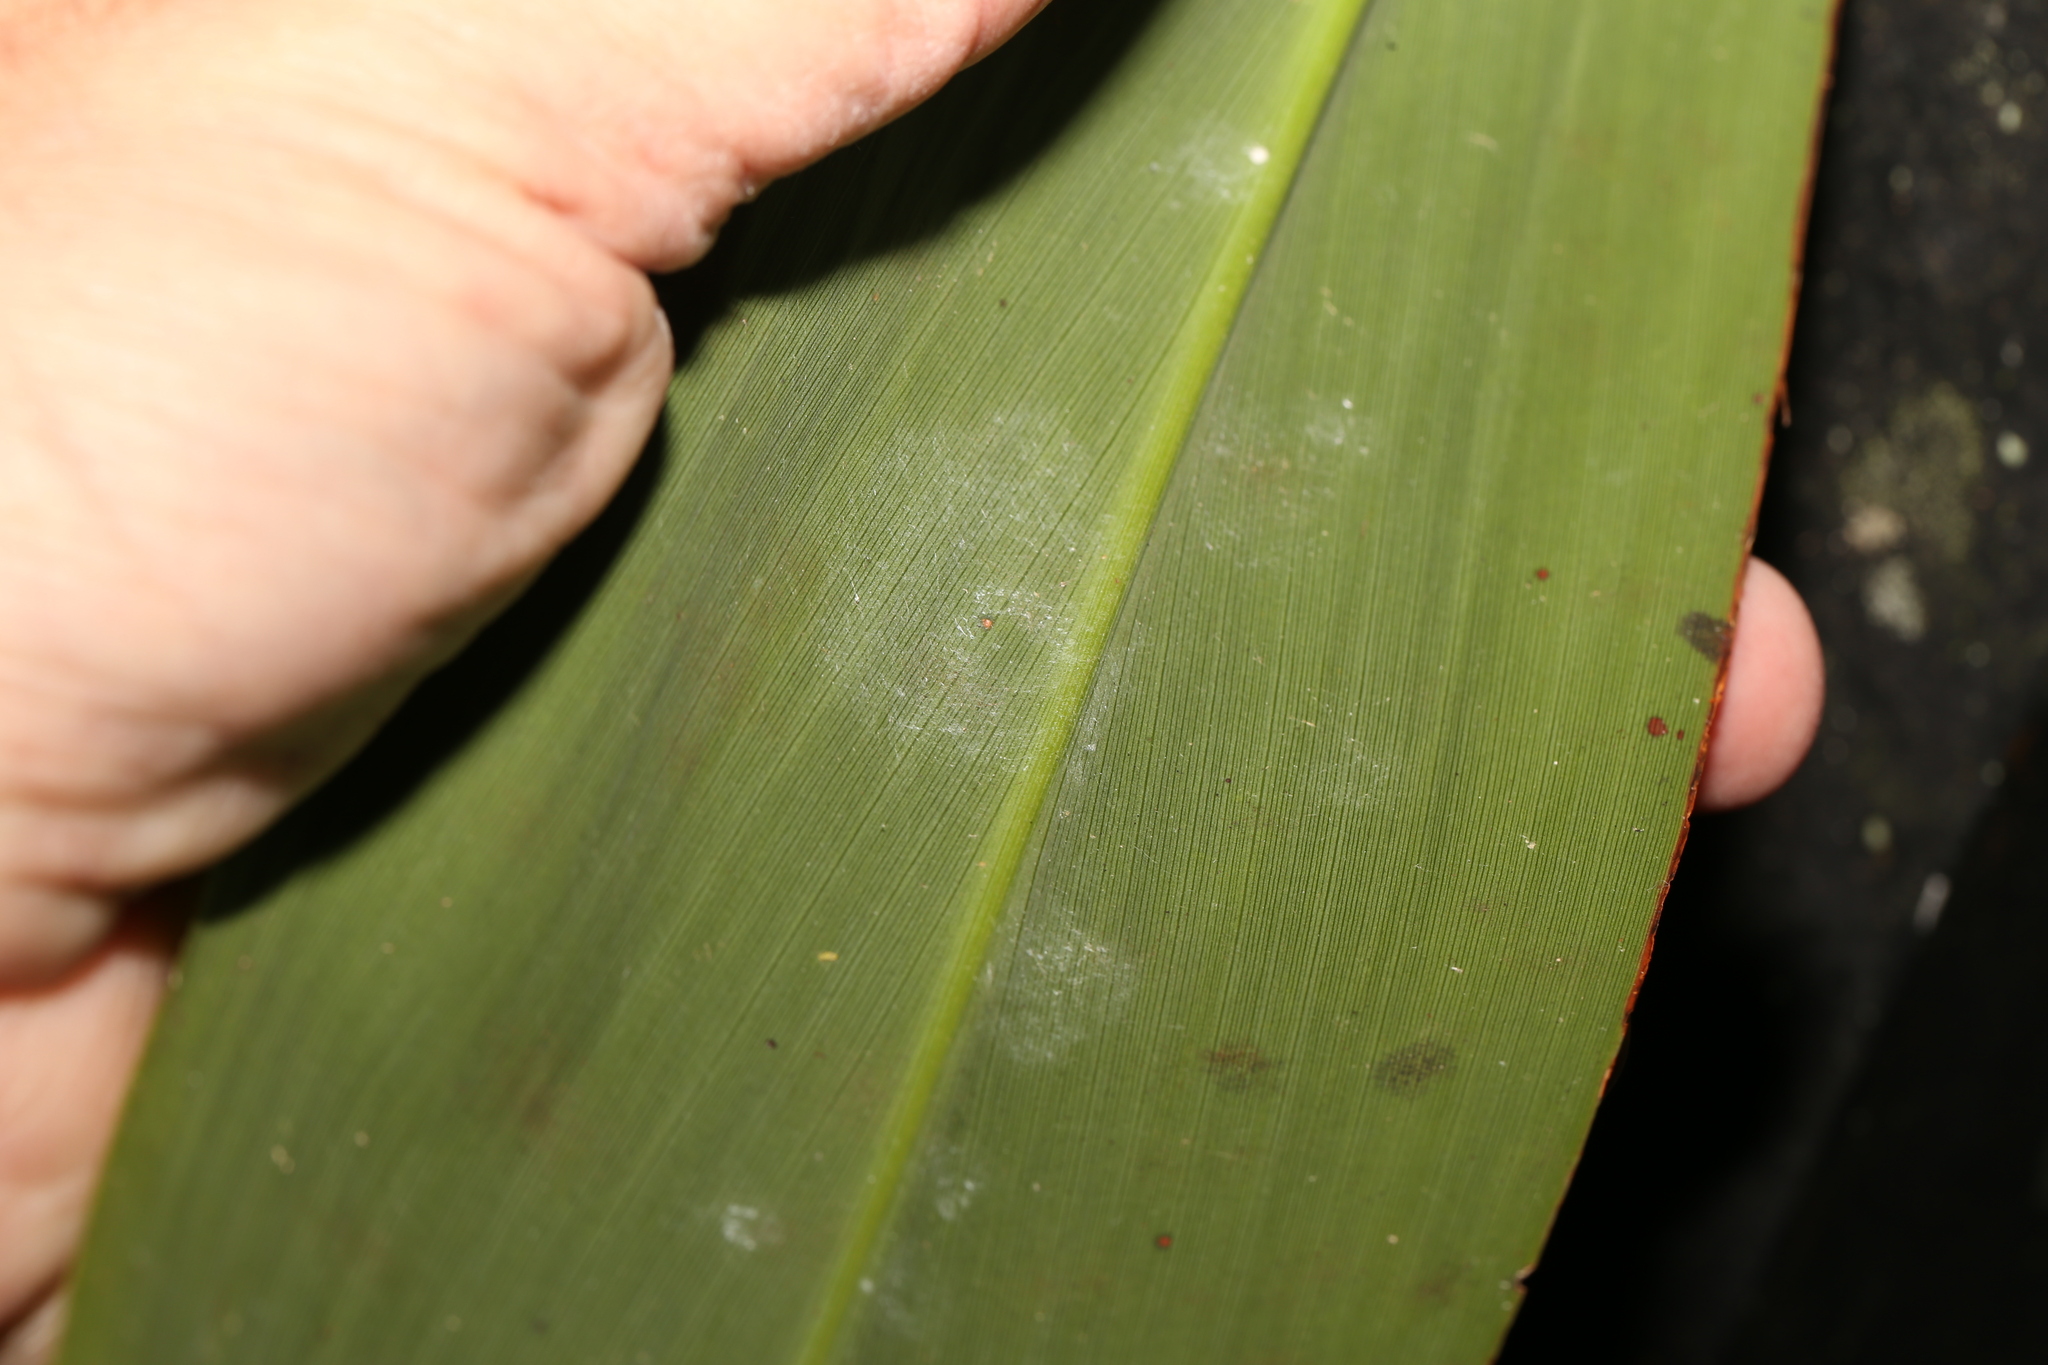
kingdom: Plantae
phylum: Tracheophyta
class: Liliopsida
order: Asparagales
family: Asparagaceae
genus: Cordyline
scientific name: Cordyline petiolaris
